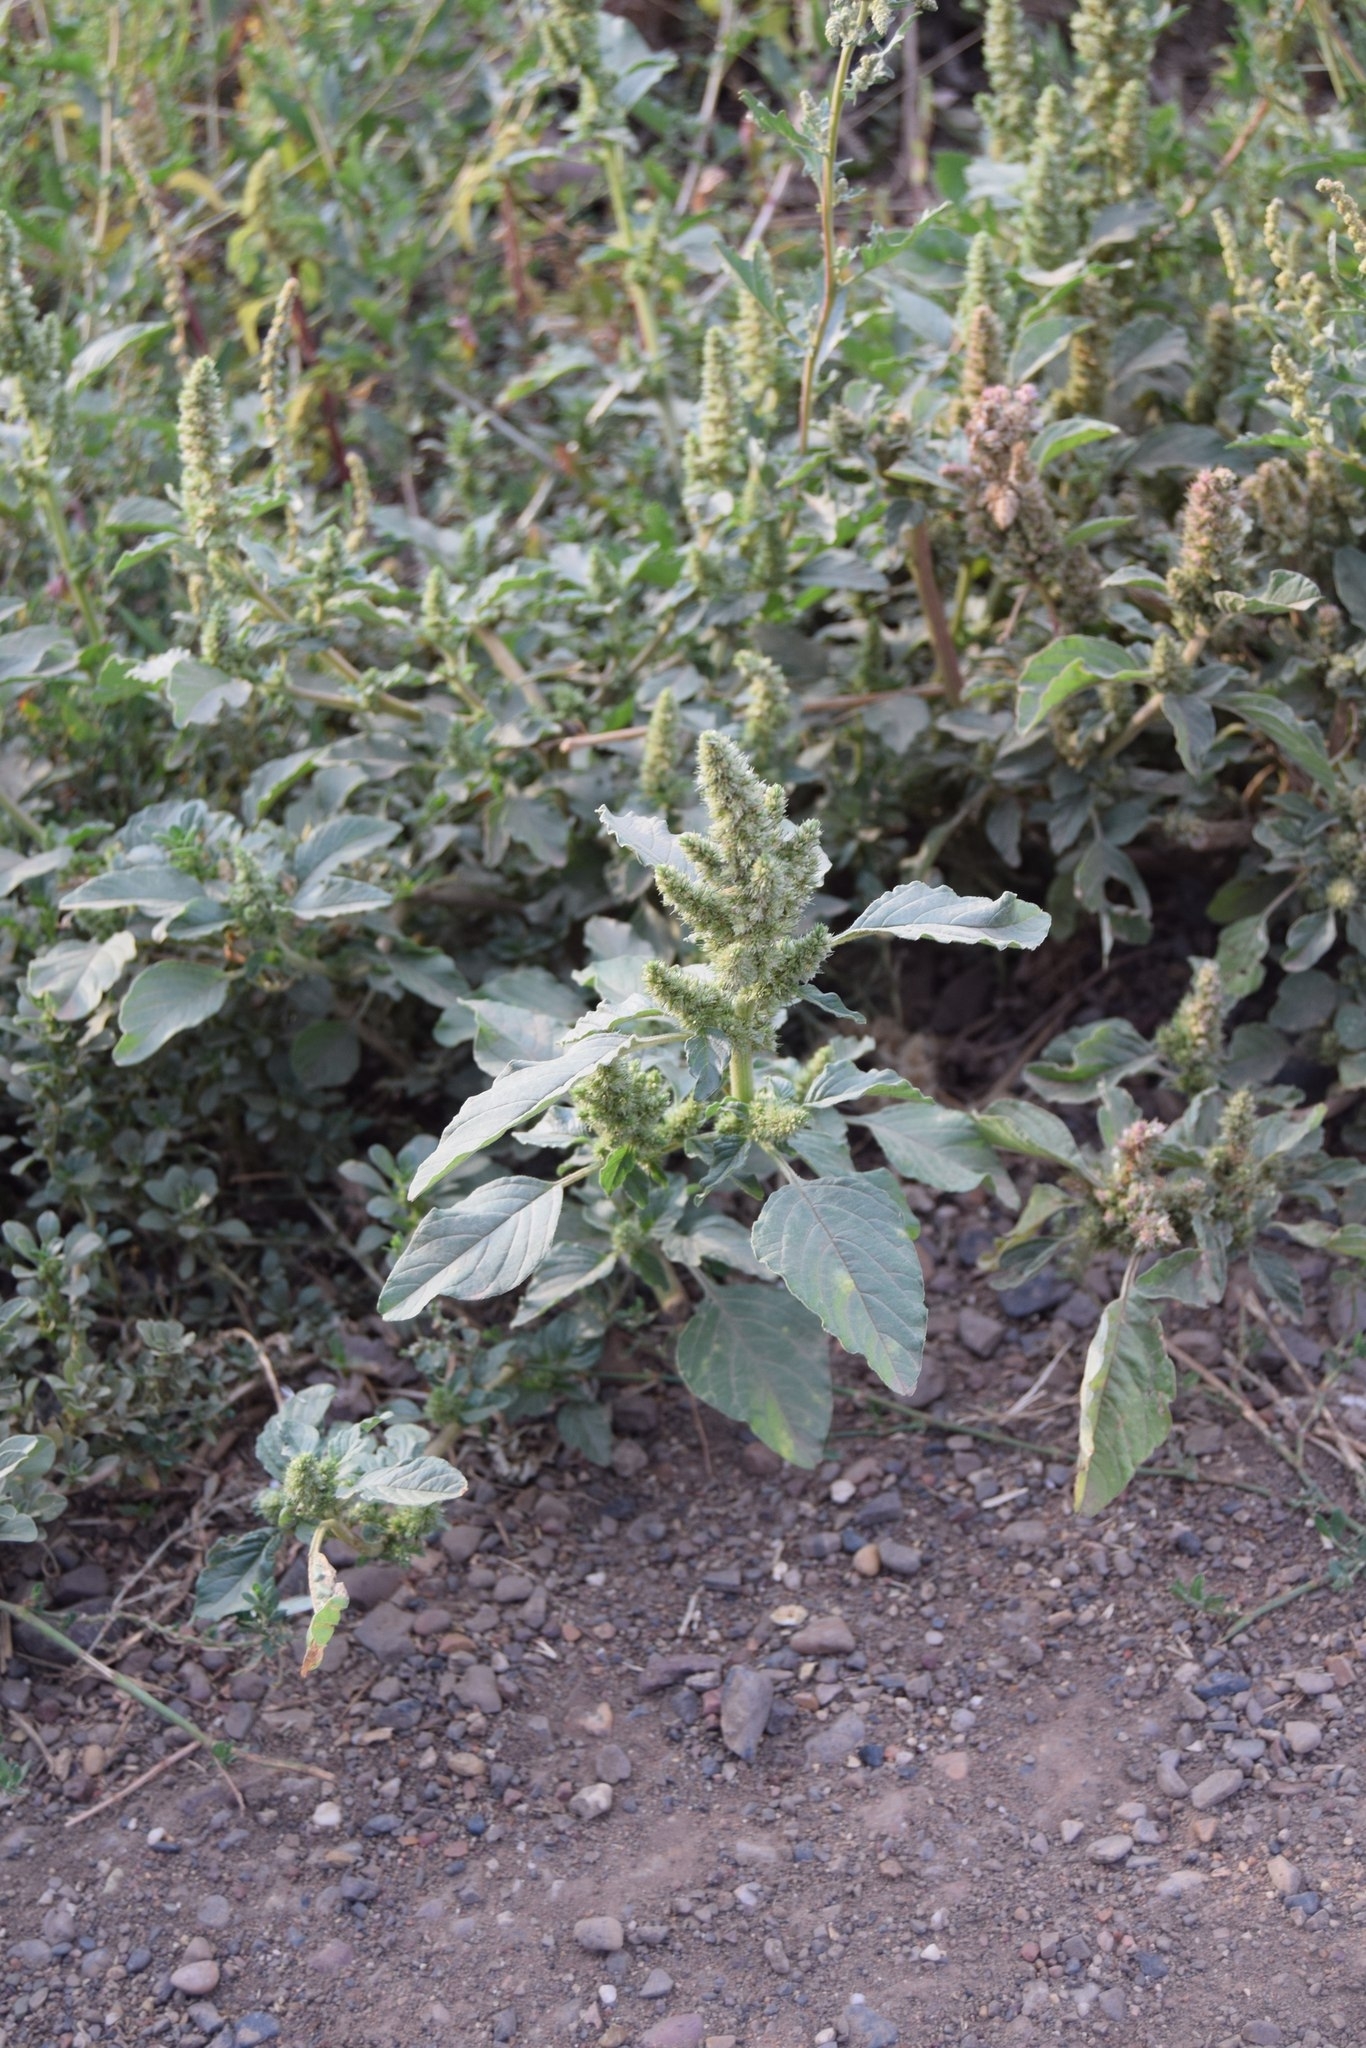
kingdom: Plantae
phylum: Tracheophyta
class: Magnoliopsida
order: Caryophyllales
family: Amaranthaceae
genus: Amaranthus
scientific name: Amaranthus retroflexus
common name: Redroot amaranth
